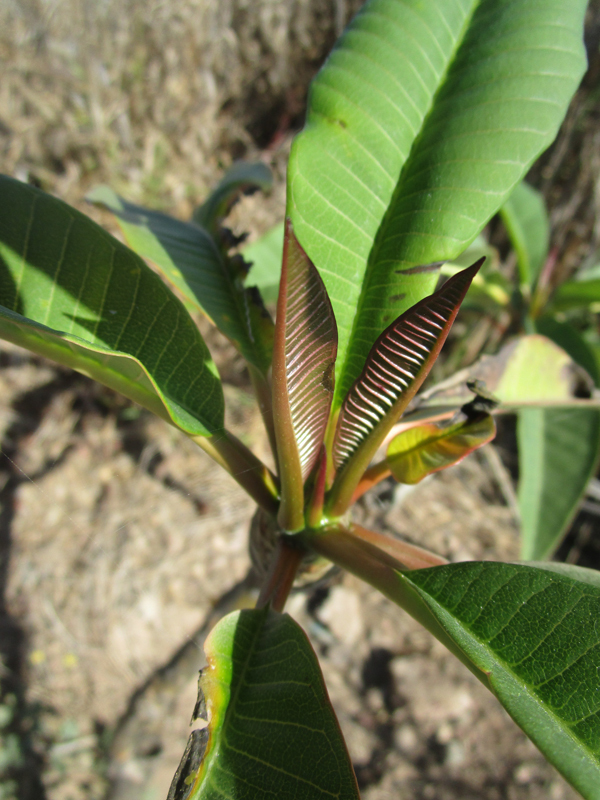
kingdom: Plantae
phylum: Tracheophyta
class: Magnoliopsida
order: Gentianales
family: Apocynaceae
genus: Plumeria
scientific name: Plumeria rubra
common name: Pagoda-tree
